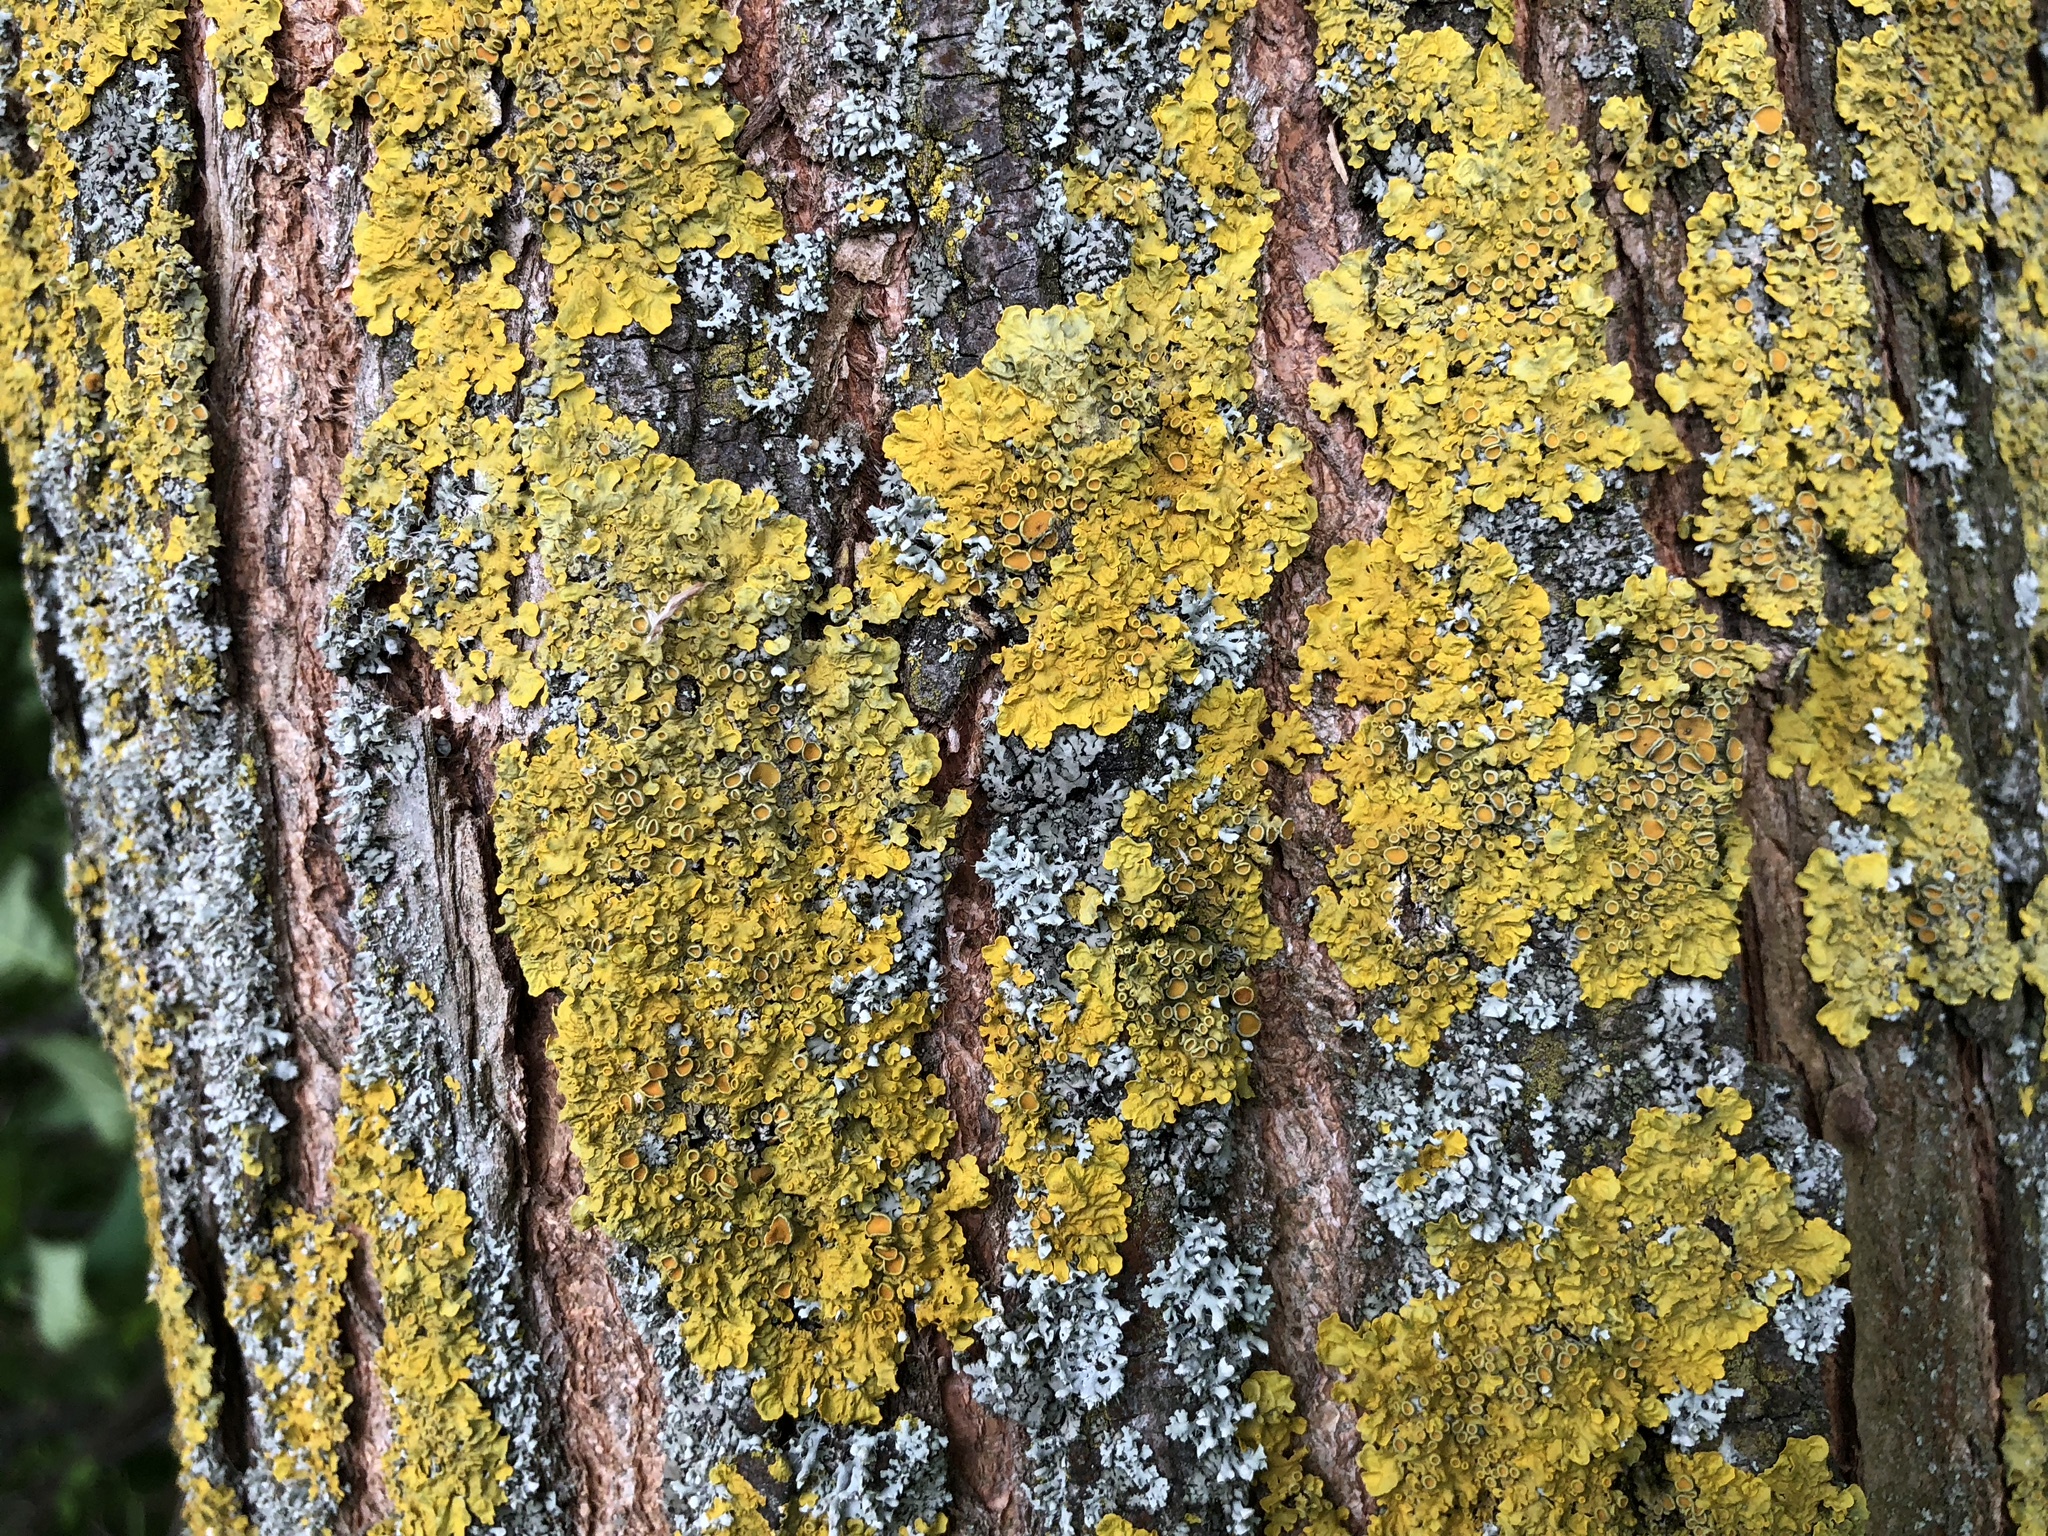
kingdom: Fungi
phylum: Ascomycota
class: Lecanoromycetes
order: Teloschistales
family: Teloschistaceae
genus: Xanthoria
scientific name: Xanthoria parietina
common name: Common orange lichen
